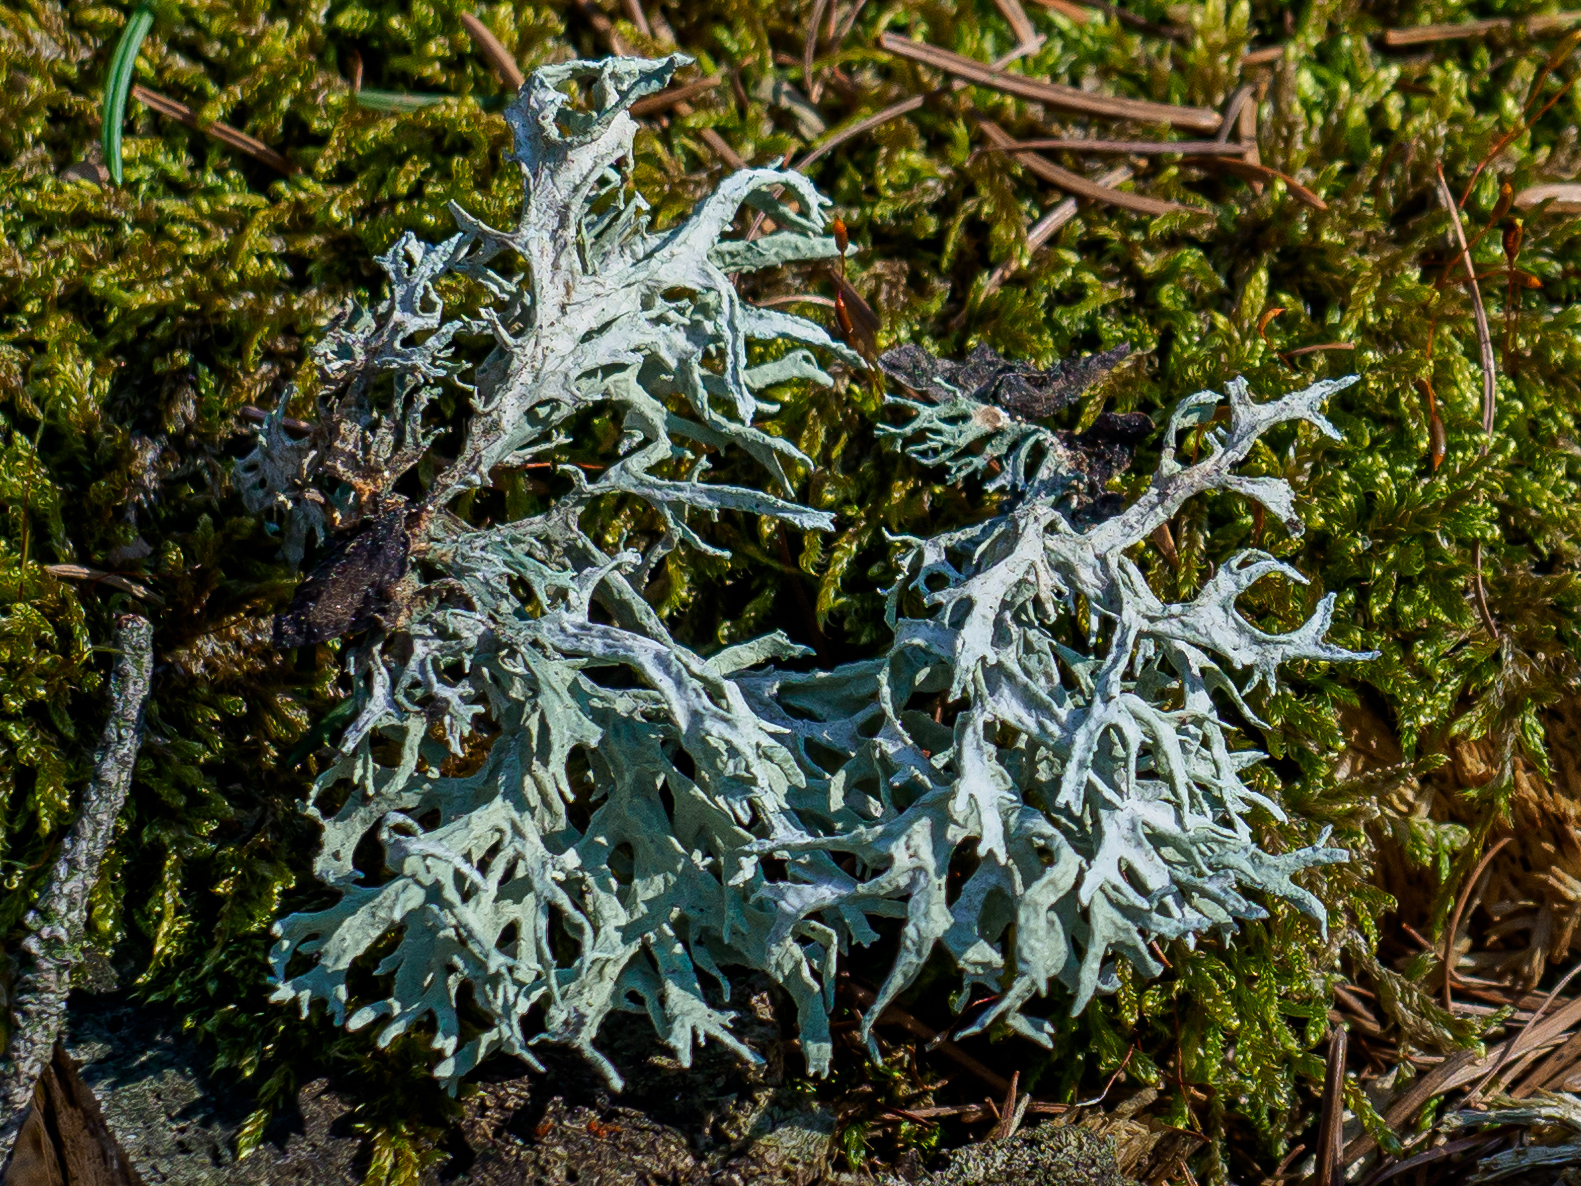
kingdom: Fungi
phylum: Ascomycota
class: Lecanoromycetes
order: Lecanorales
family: Parmeliaceae
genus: Evernia
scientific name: Evernia prunastri
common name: Oak moss
